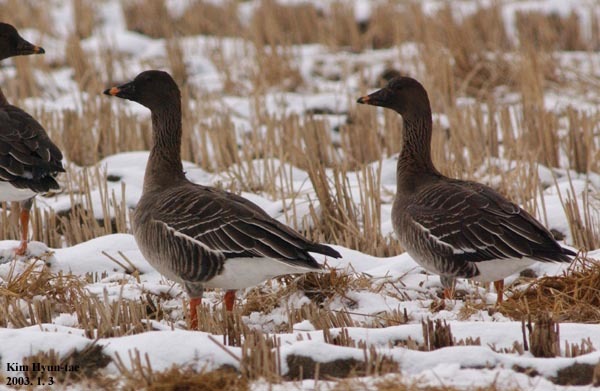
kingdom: Animalia
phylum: Chordata
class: Aves
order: Anseriformes
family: Anatidae
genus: Anser
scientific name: Anser fabalis
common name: Bean goose
